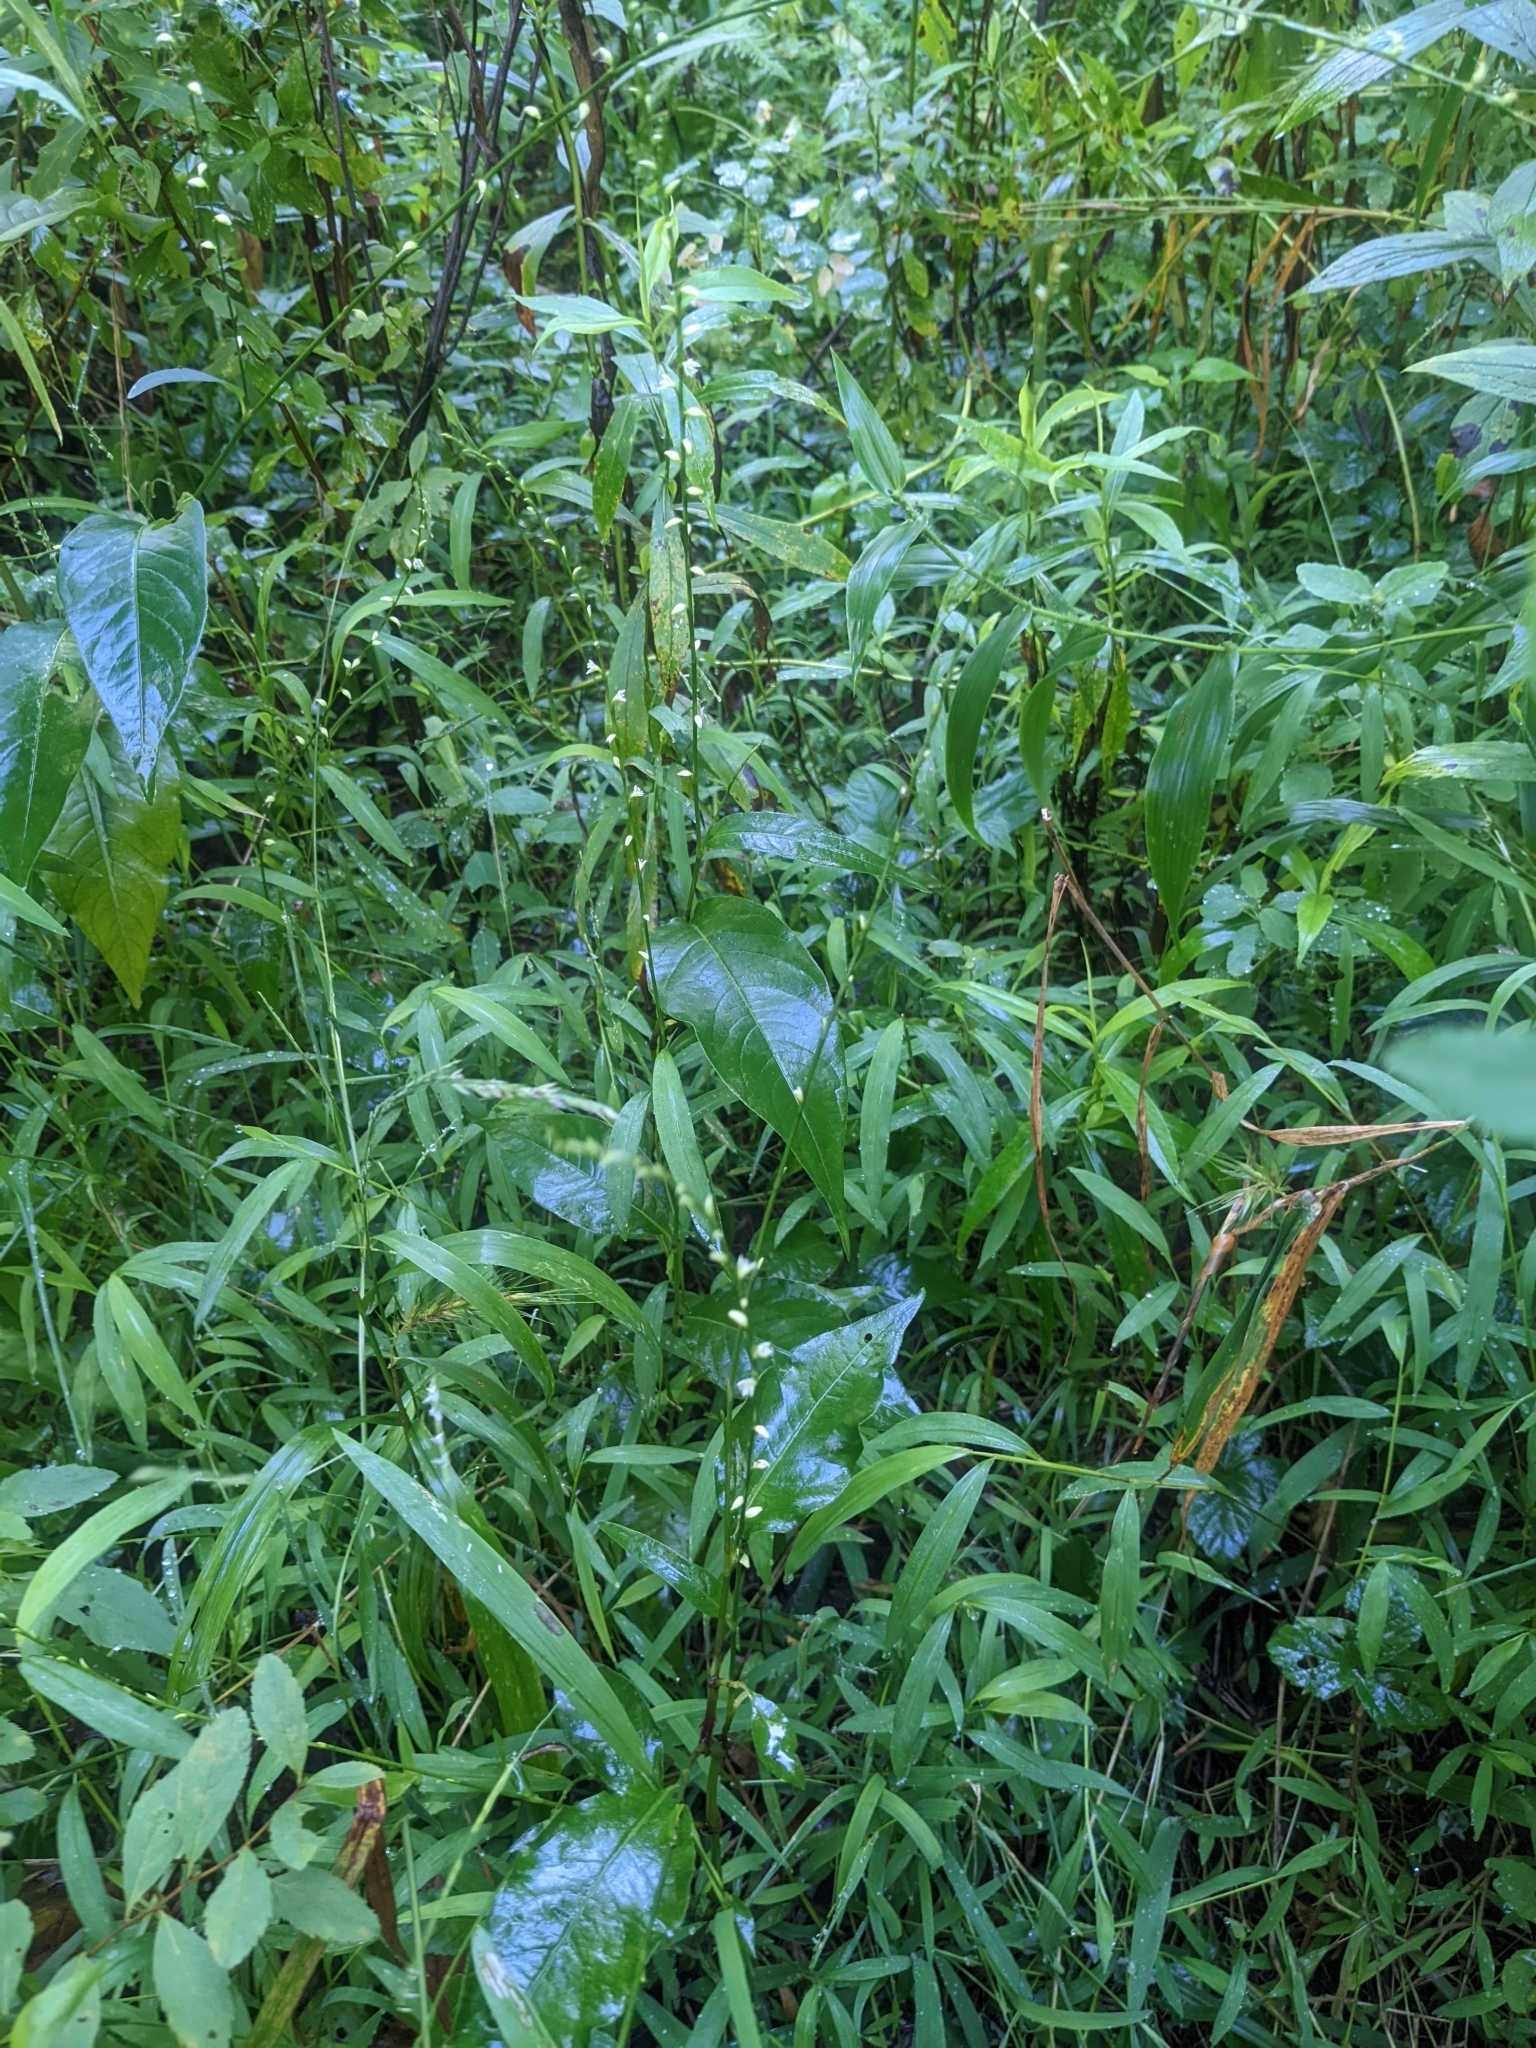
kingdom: Plantae
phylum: Tracheophyta
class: Magnoliopsida
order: Caryophyllales
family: Polygonaceae
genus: Persicaria
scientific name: Persicaria virginiana
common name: Jumpseed
